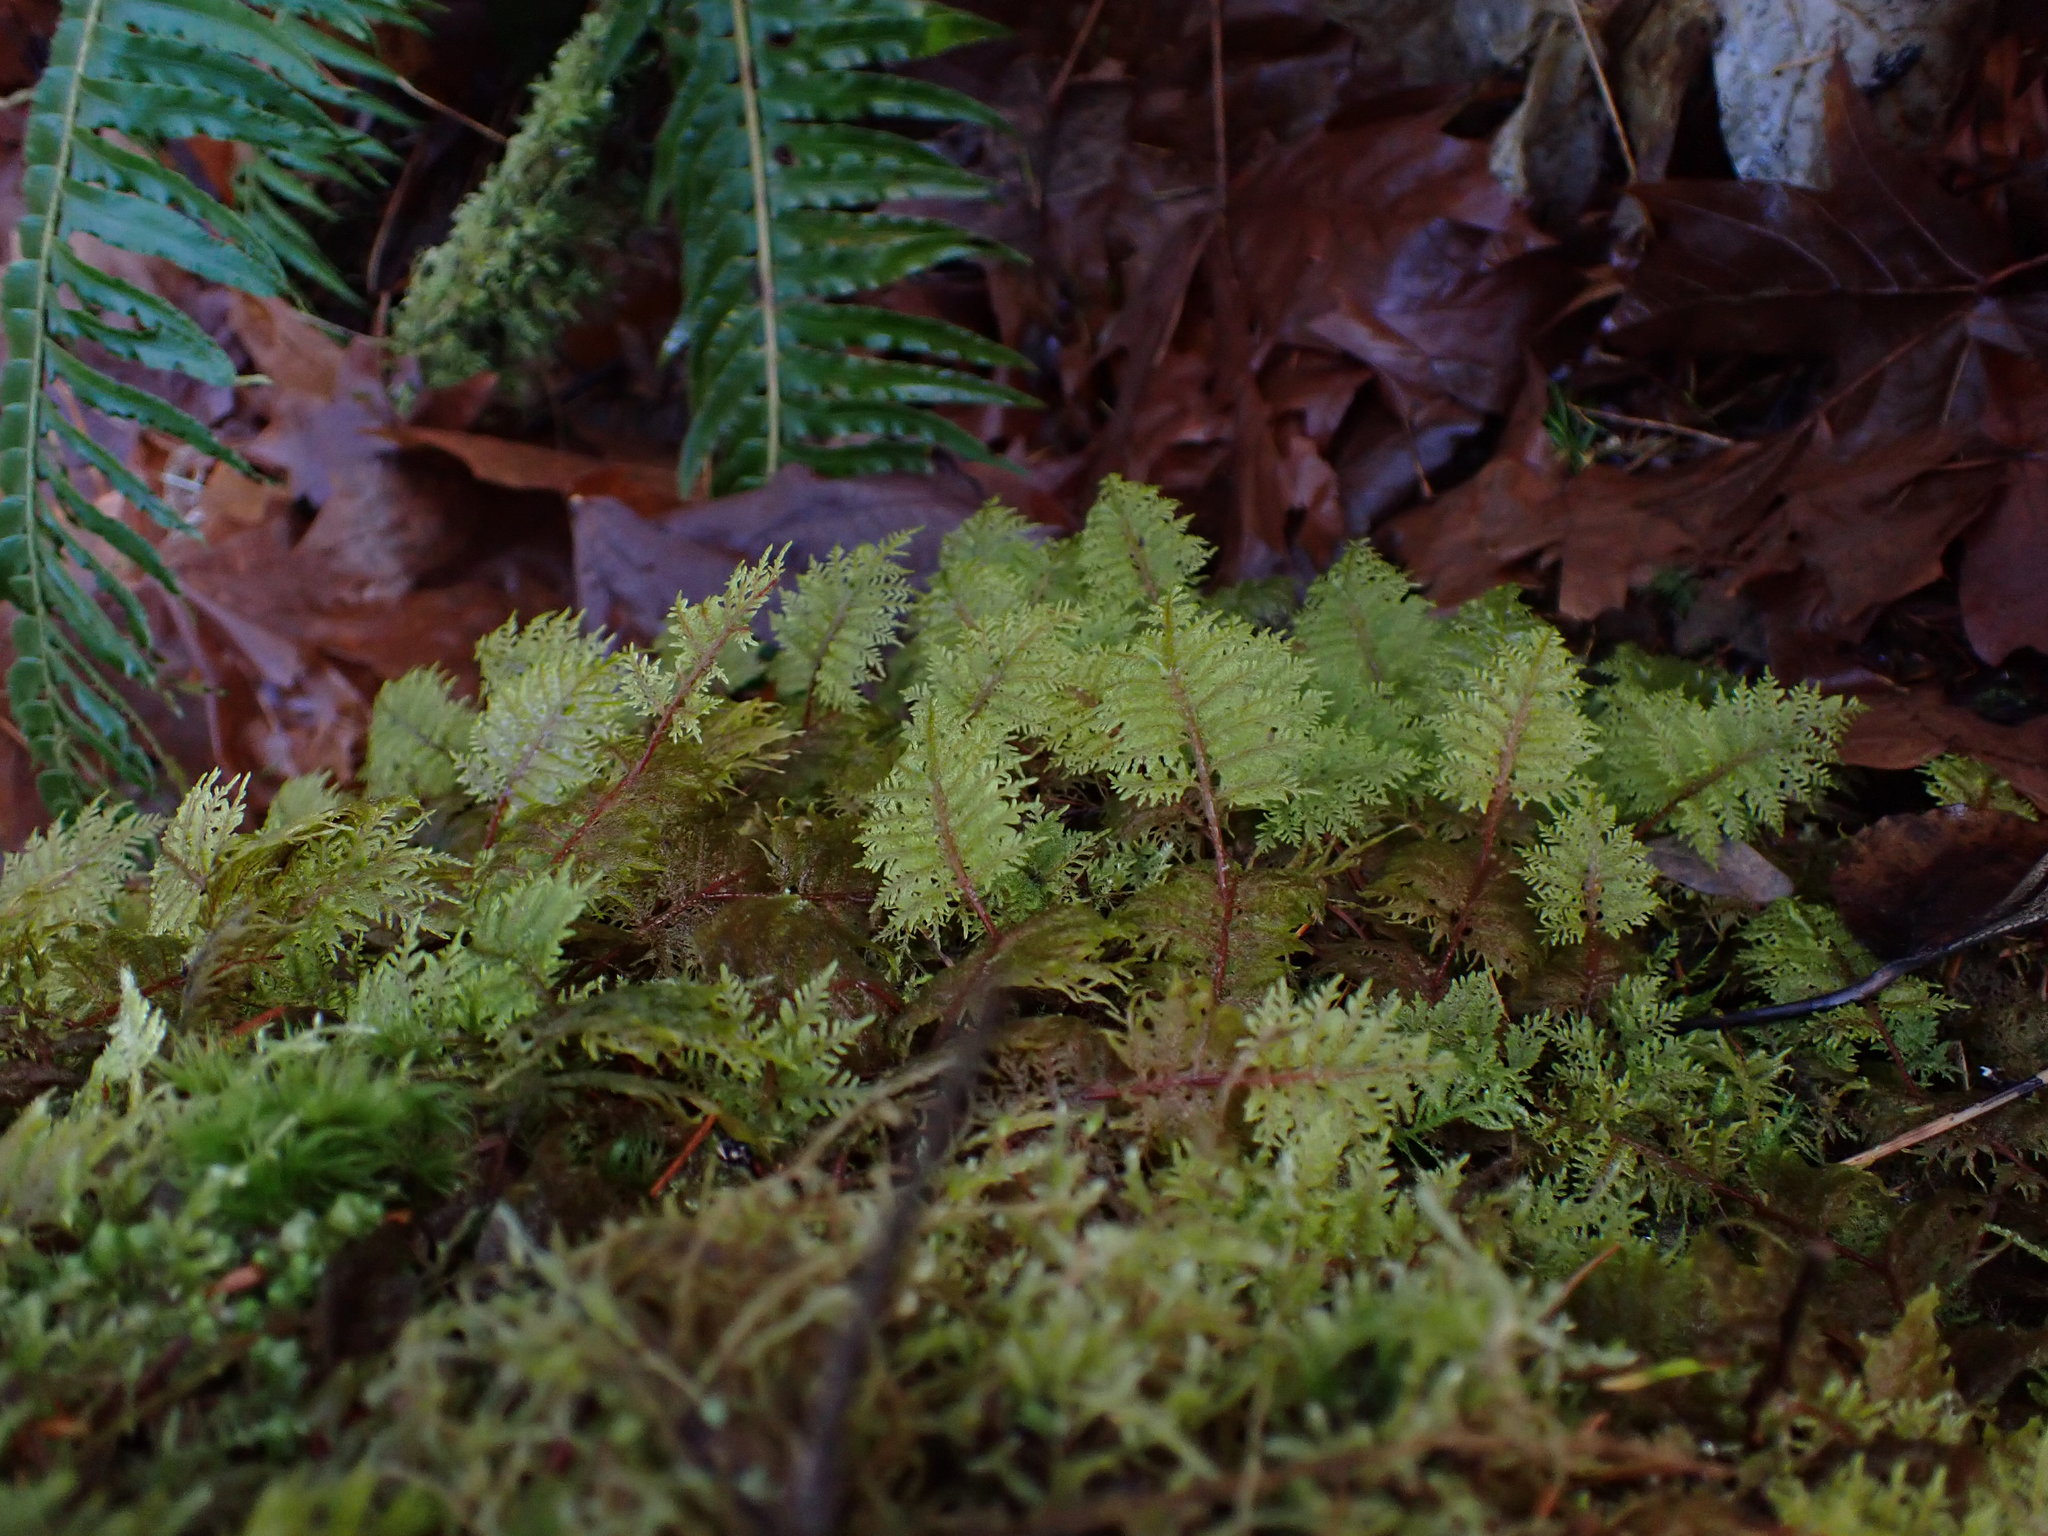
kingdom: Plantae
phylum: Bryophyta
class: Bryopsida
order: Hypnales
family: Hylocomiaceae
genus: Hylocomium
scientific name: Hylocomium splendens
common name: Stairstep moss
